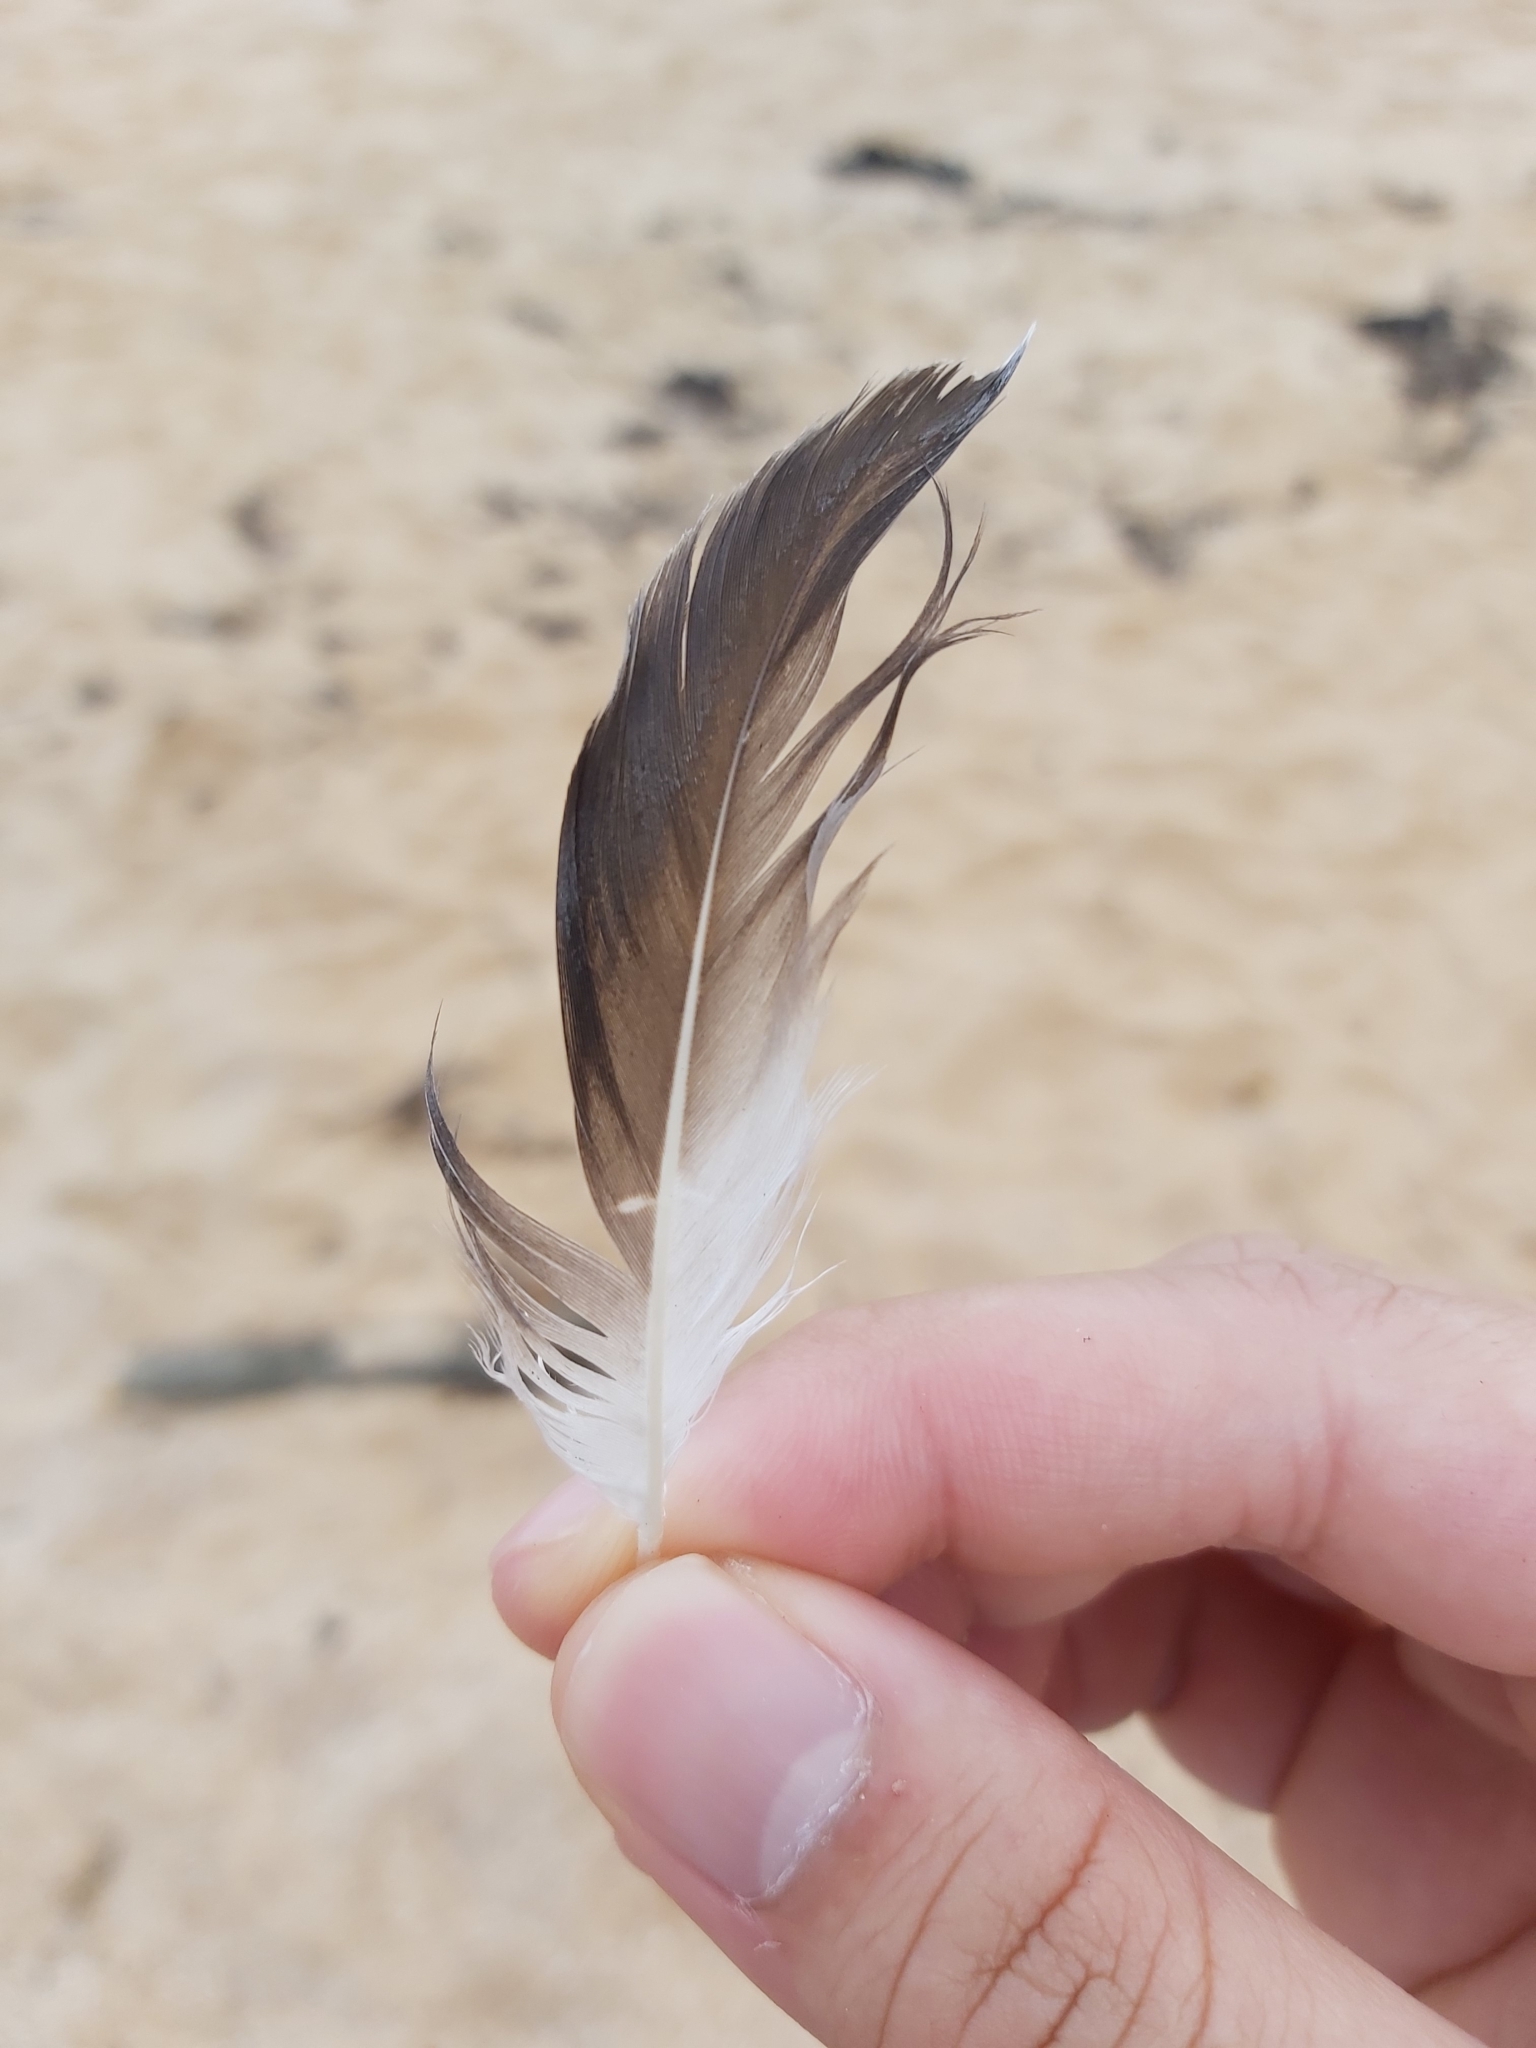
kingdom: Animalia
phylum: Chordata
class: Aves
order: Suliformes
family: Sulidae
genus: Morus
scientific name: Morus serrator
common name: Australasian gannet
